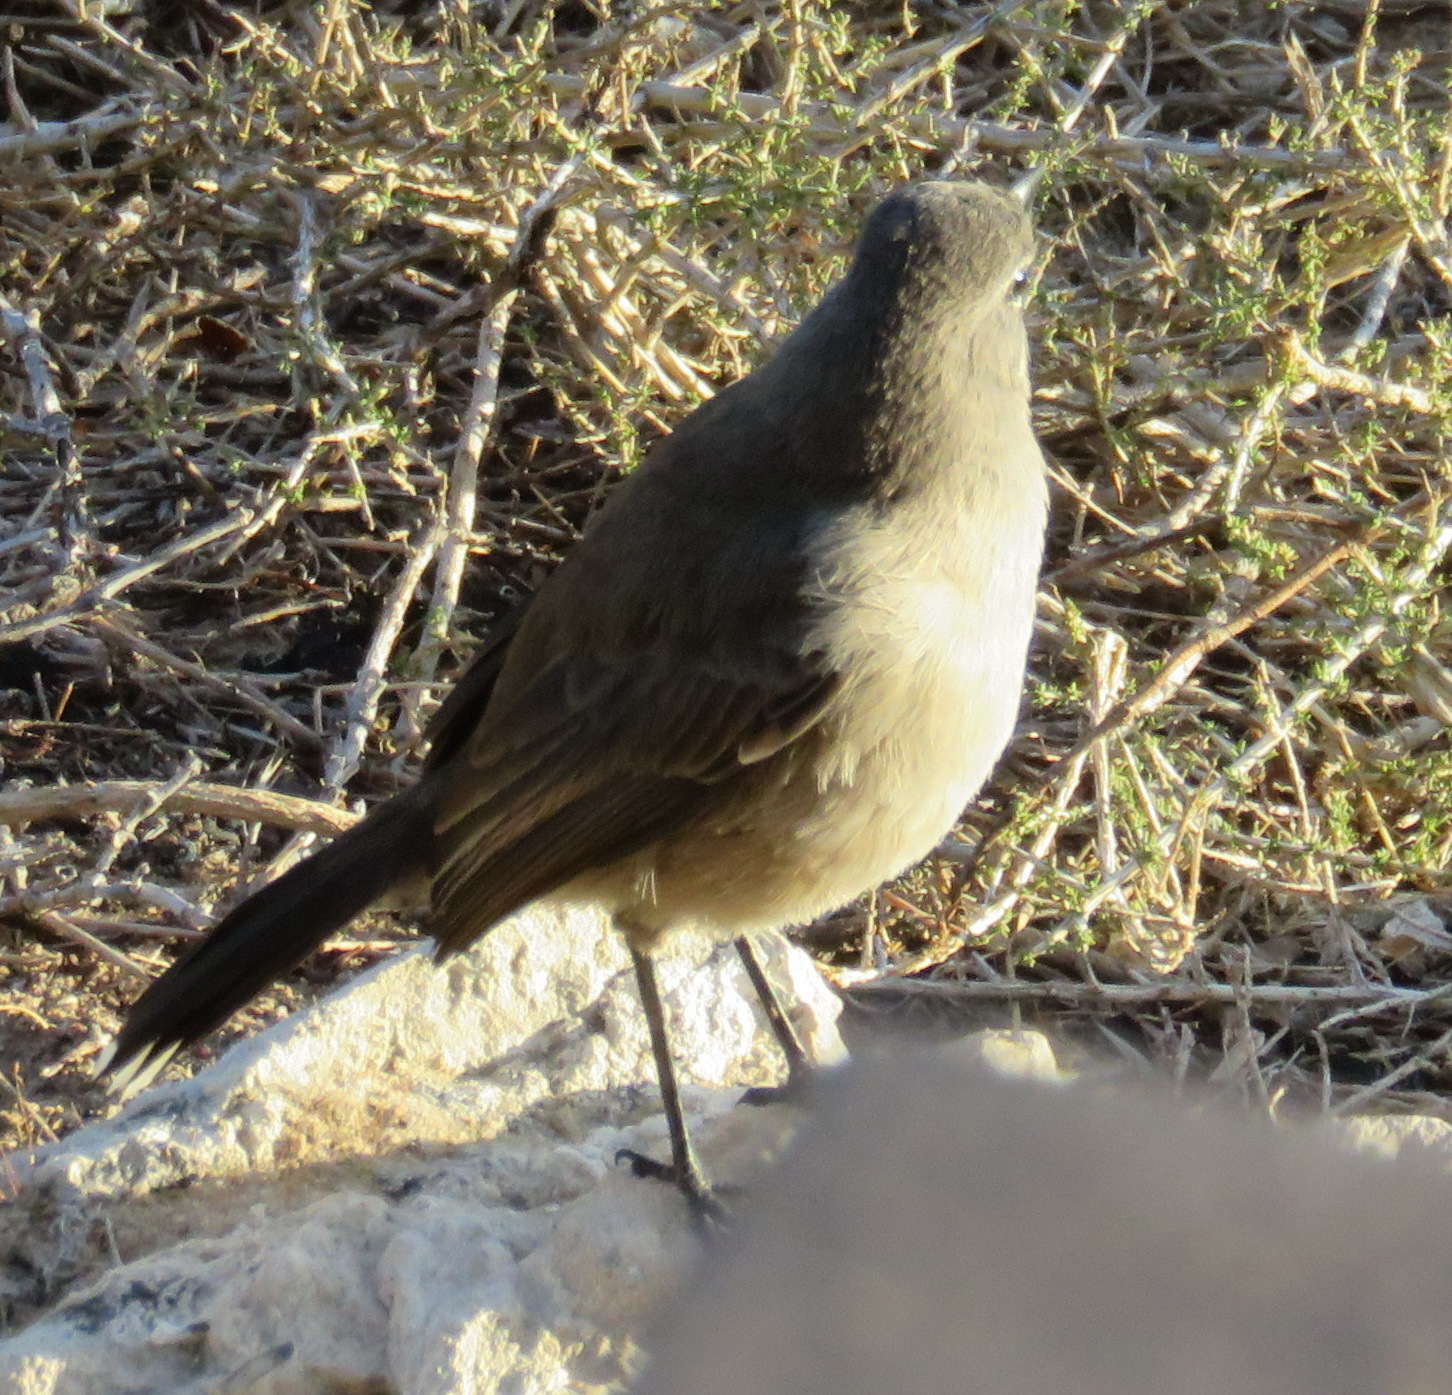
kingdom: Animalia
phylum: Chordata
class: Aves
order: Passeriformes
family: Muscicapidae
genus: Erythropygia
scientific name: Erythropygia coryphoeus
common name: Karoo scrub robin
